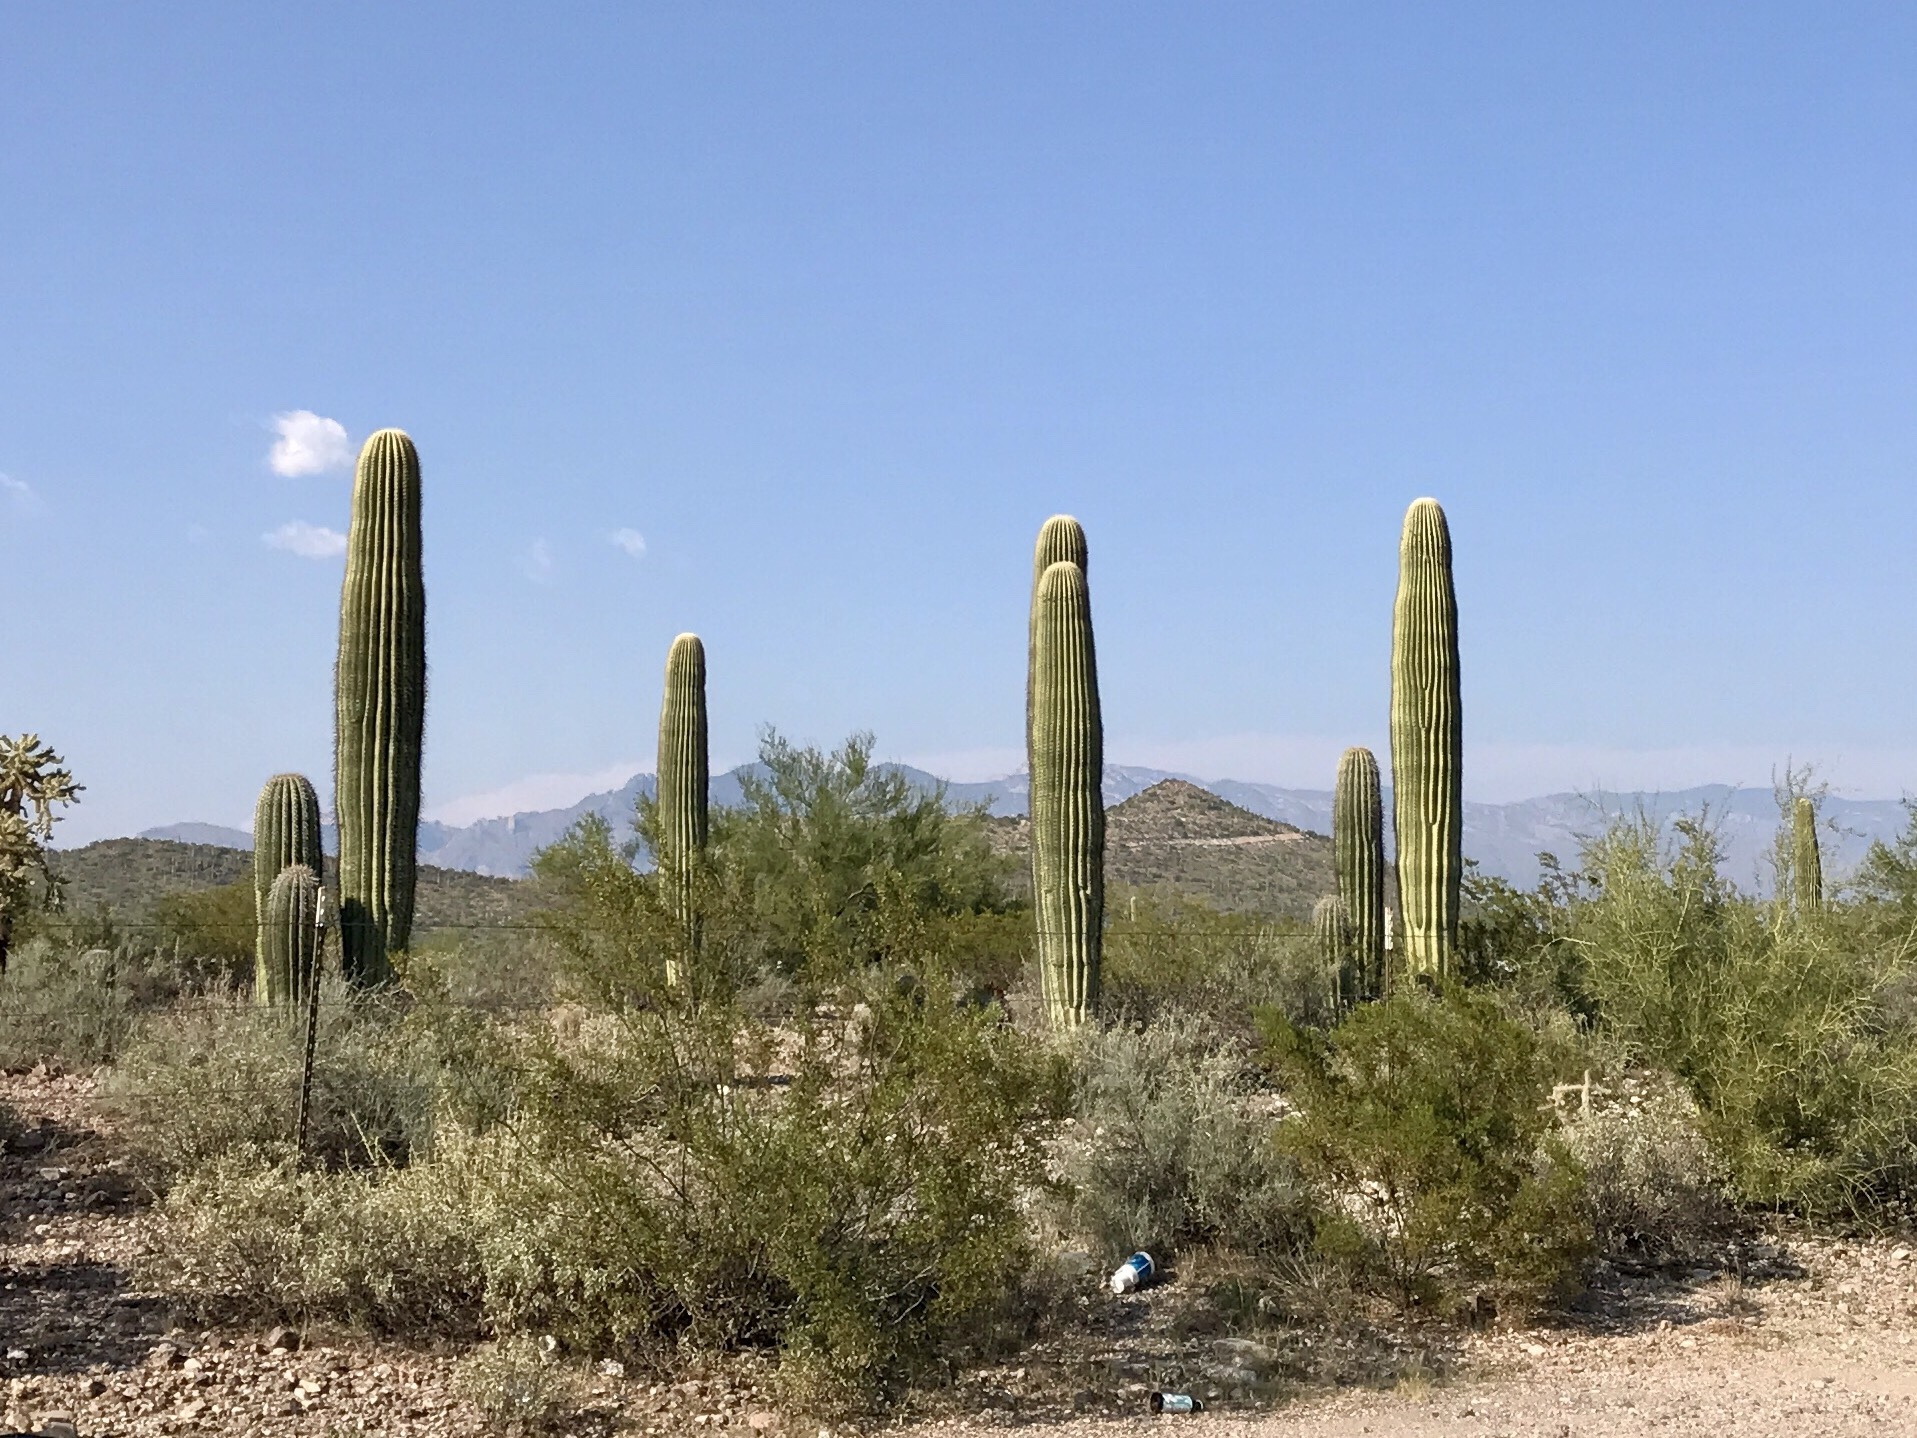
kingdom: Plantae
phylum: Tracheophyta
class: Magnoliopsida
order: Caryophyllales
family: Cactaceae
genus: Carnegiea
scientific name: Carnegiea gigantea
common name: Saguaro
